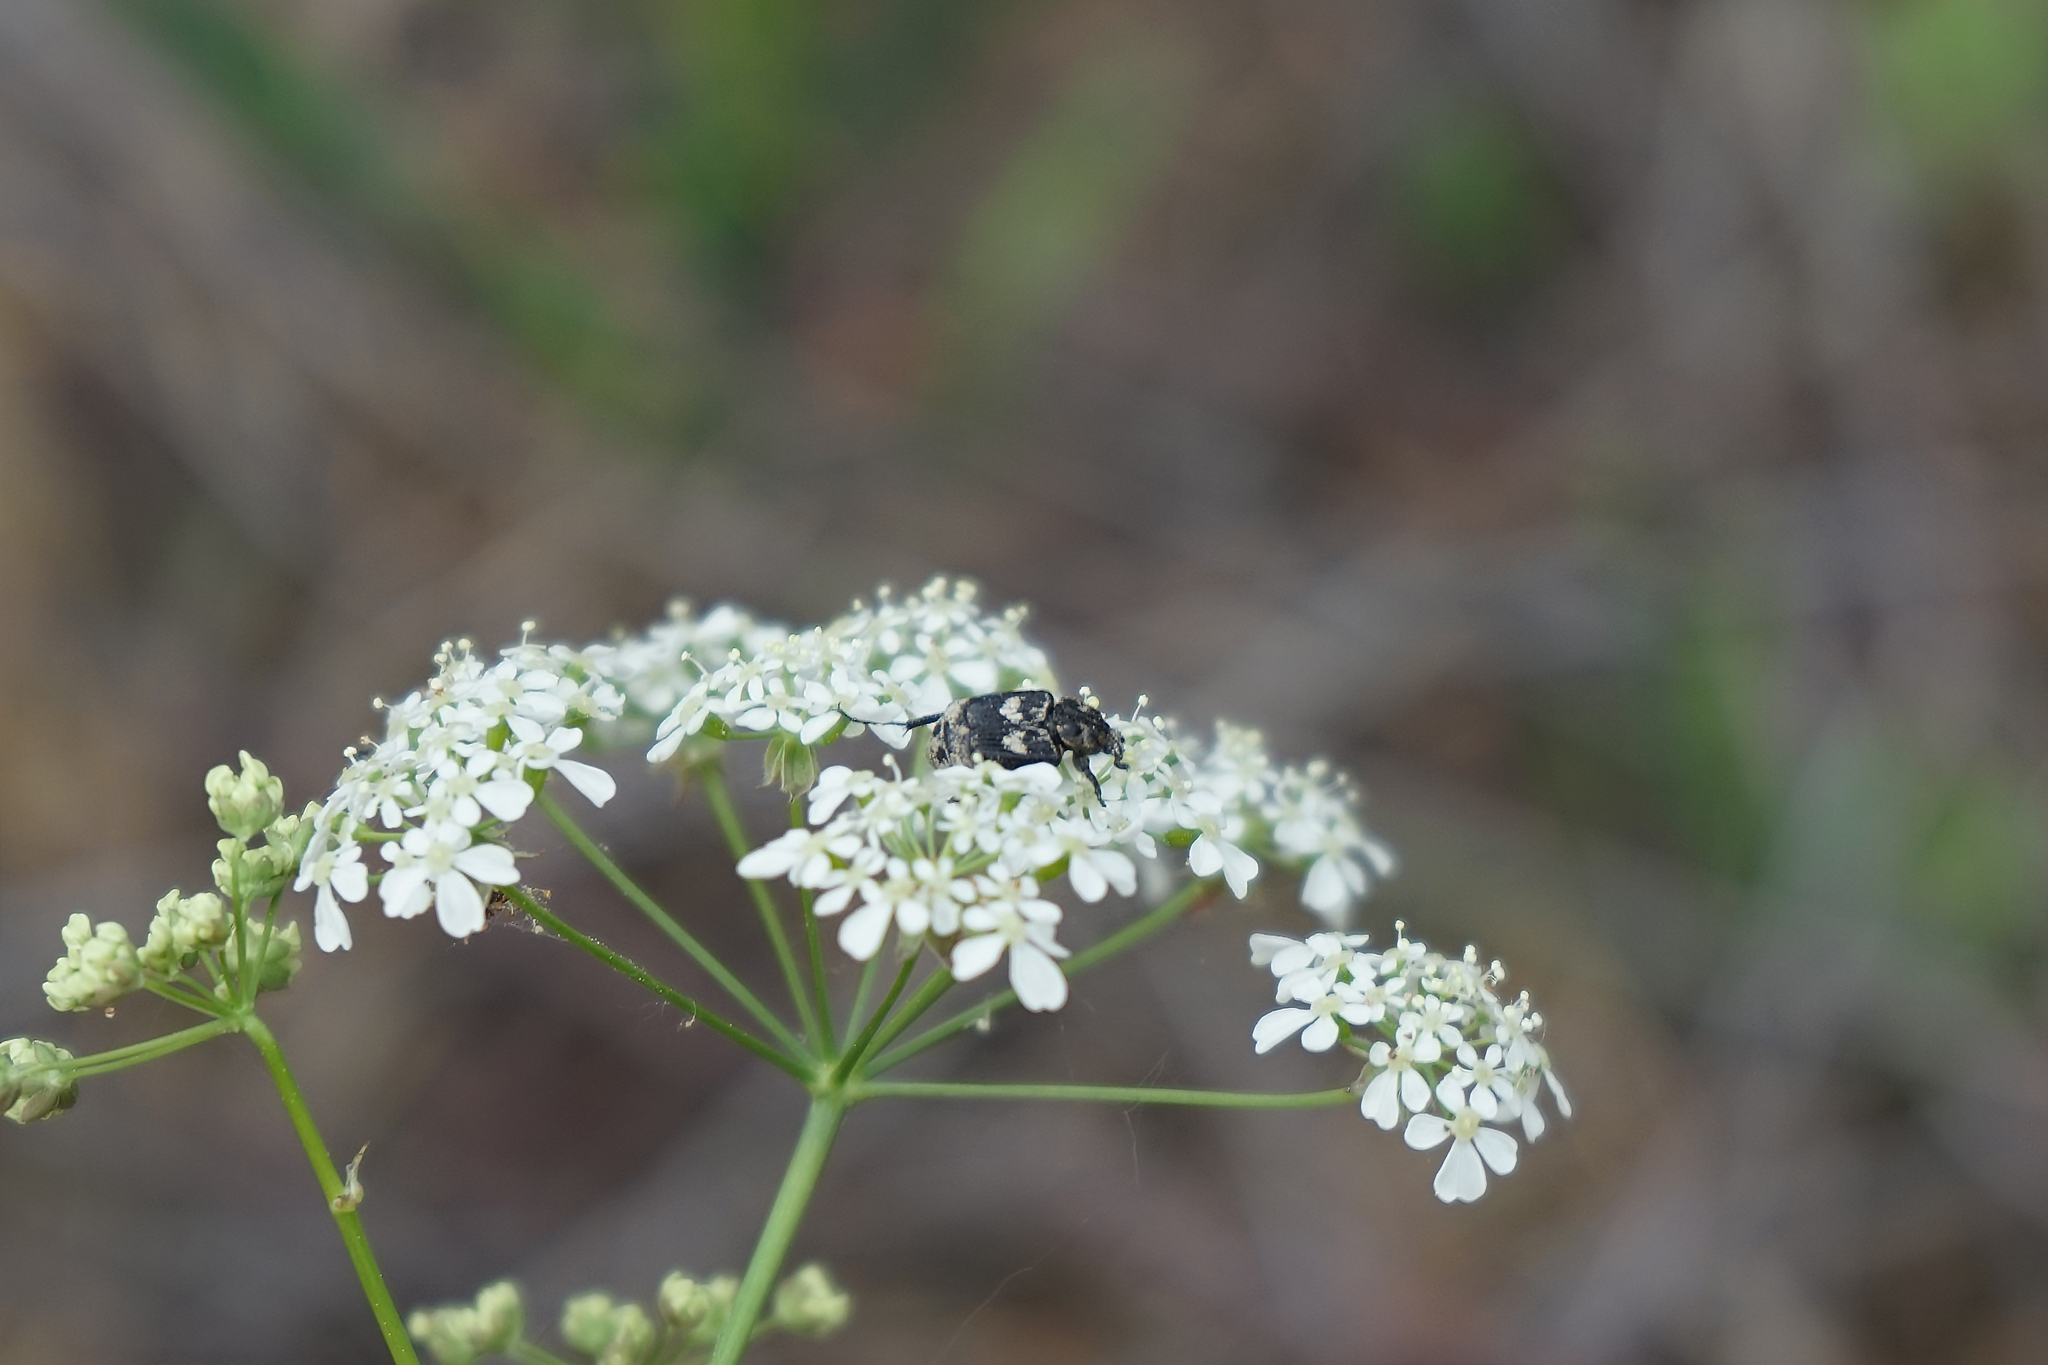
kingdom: Animalia
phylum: Arthropoda
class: Insecta
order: Coleoptera
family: Scarabaeidae
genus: Valgus
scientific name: Valgus hemipterus
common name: Bug flower chafer
